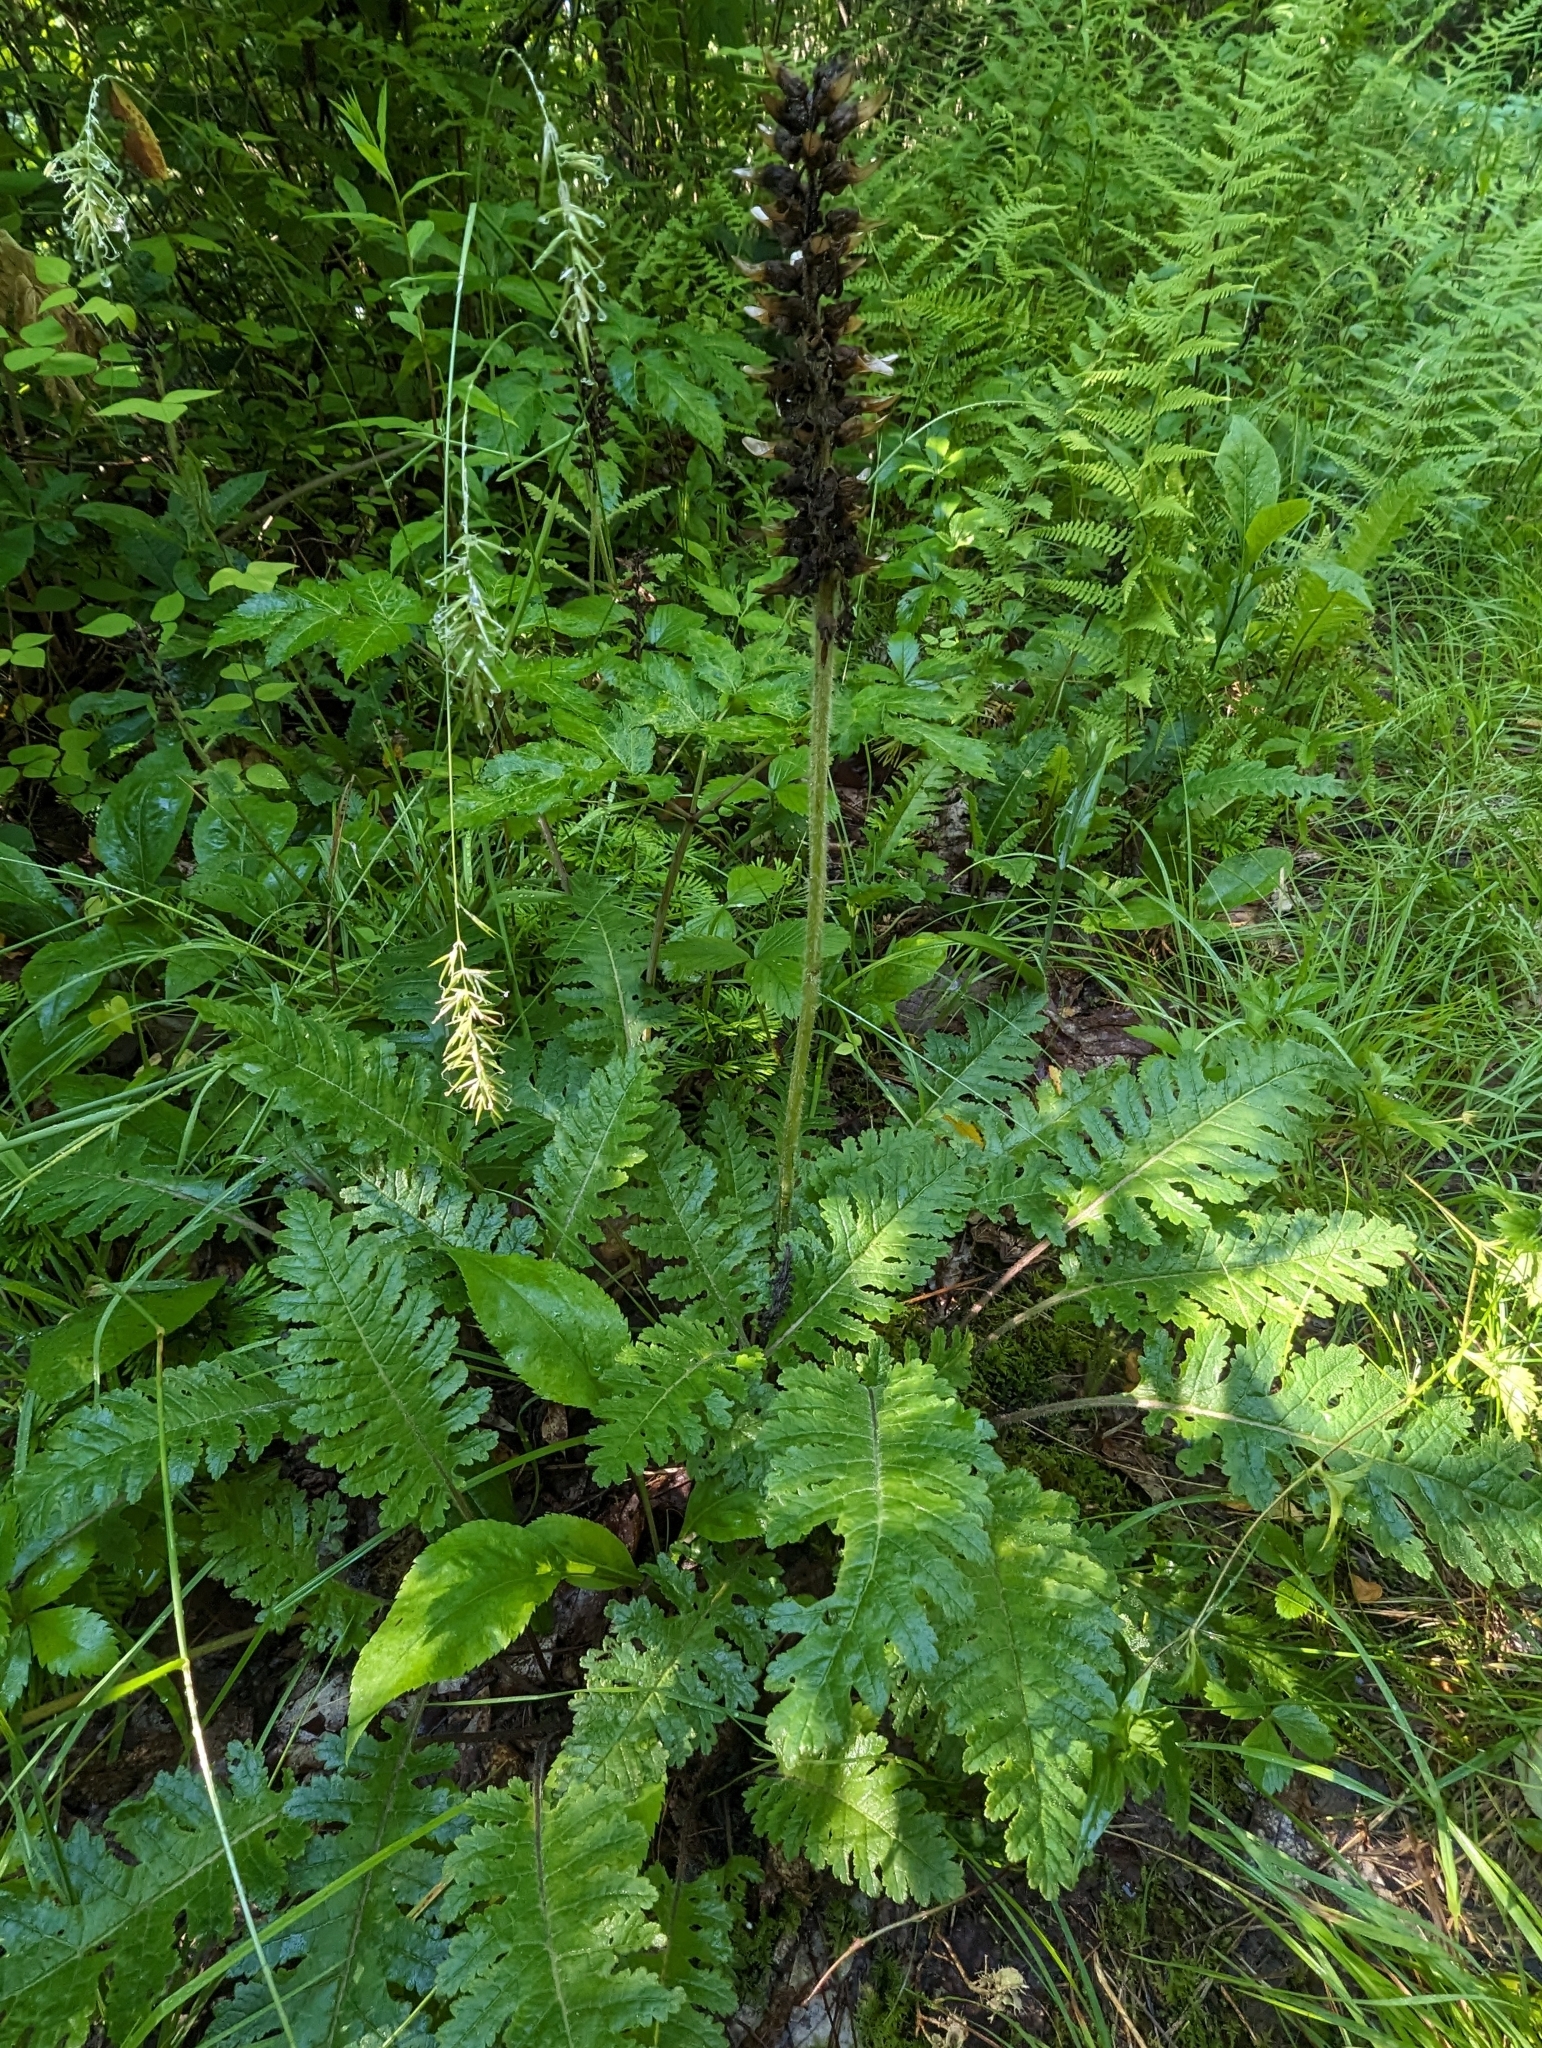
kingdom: Plantae
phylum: Tracheophyta
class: Magnoliopsida
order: Lamiales
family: Orobanchaceae
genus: Pedicularis
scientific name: Pedicularis canadensis
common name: Early lousewort
